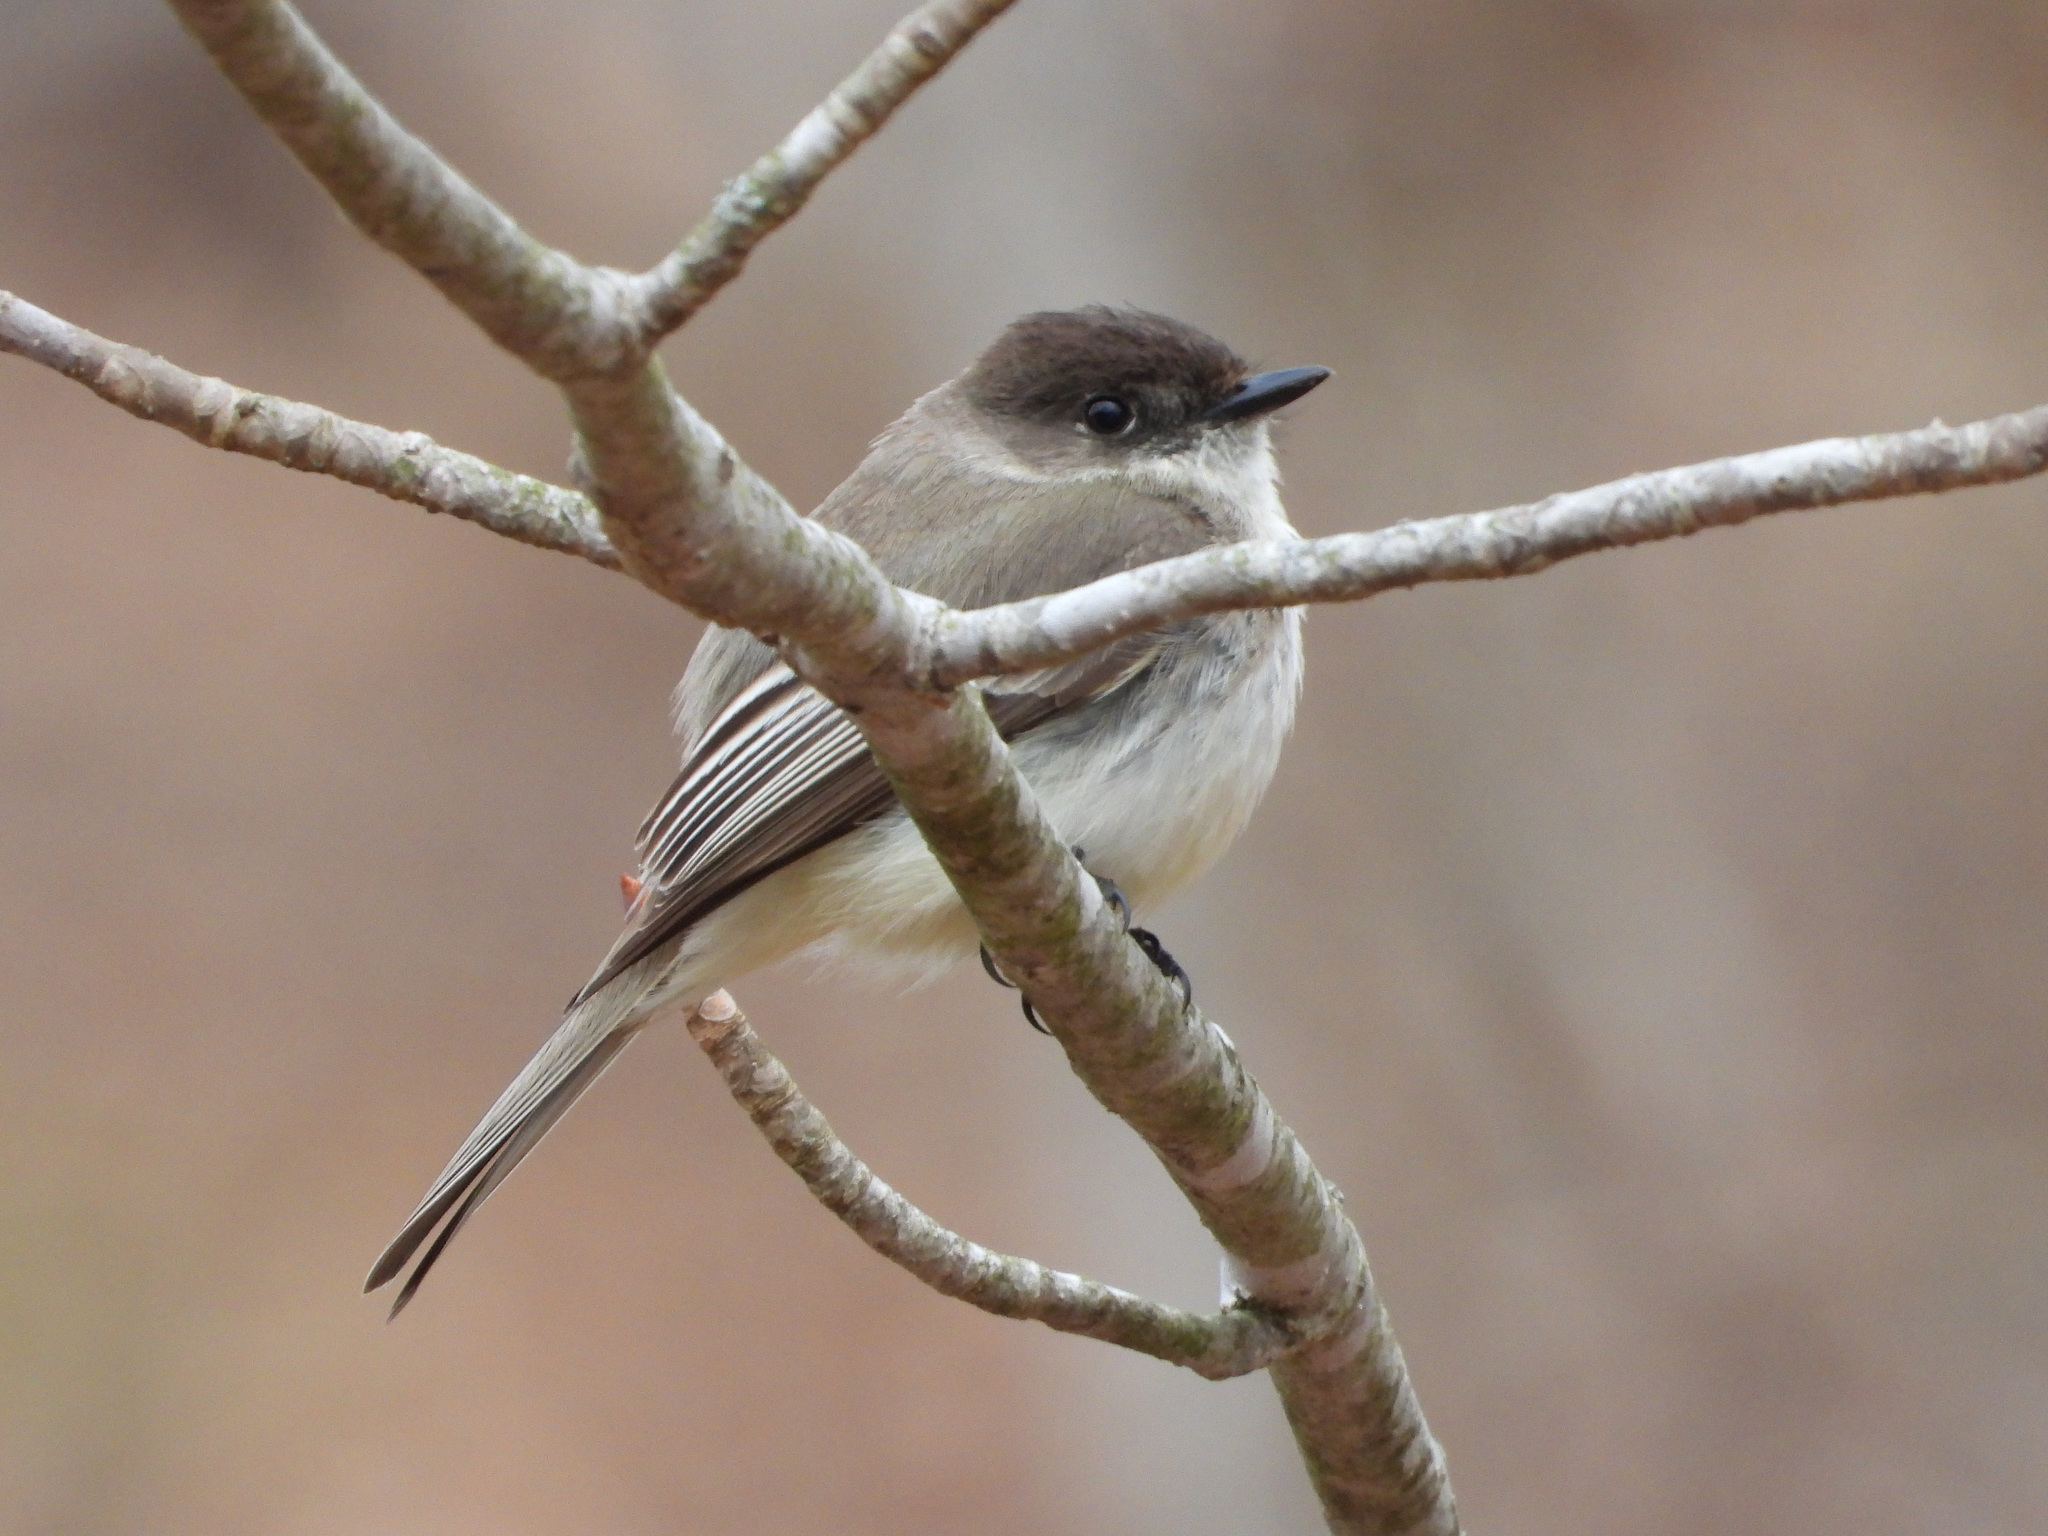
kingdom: Animalia
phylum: Chordata
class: Aves
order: Passeriformes
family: Tyrannidae
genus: Sayornis
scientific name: Sayornis phoebe
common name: Eastern phoebe
